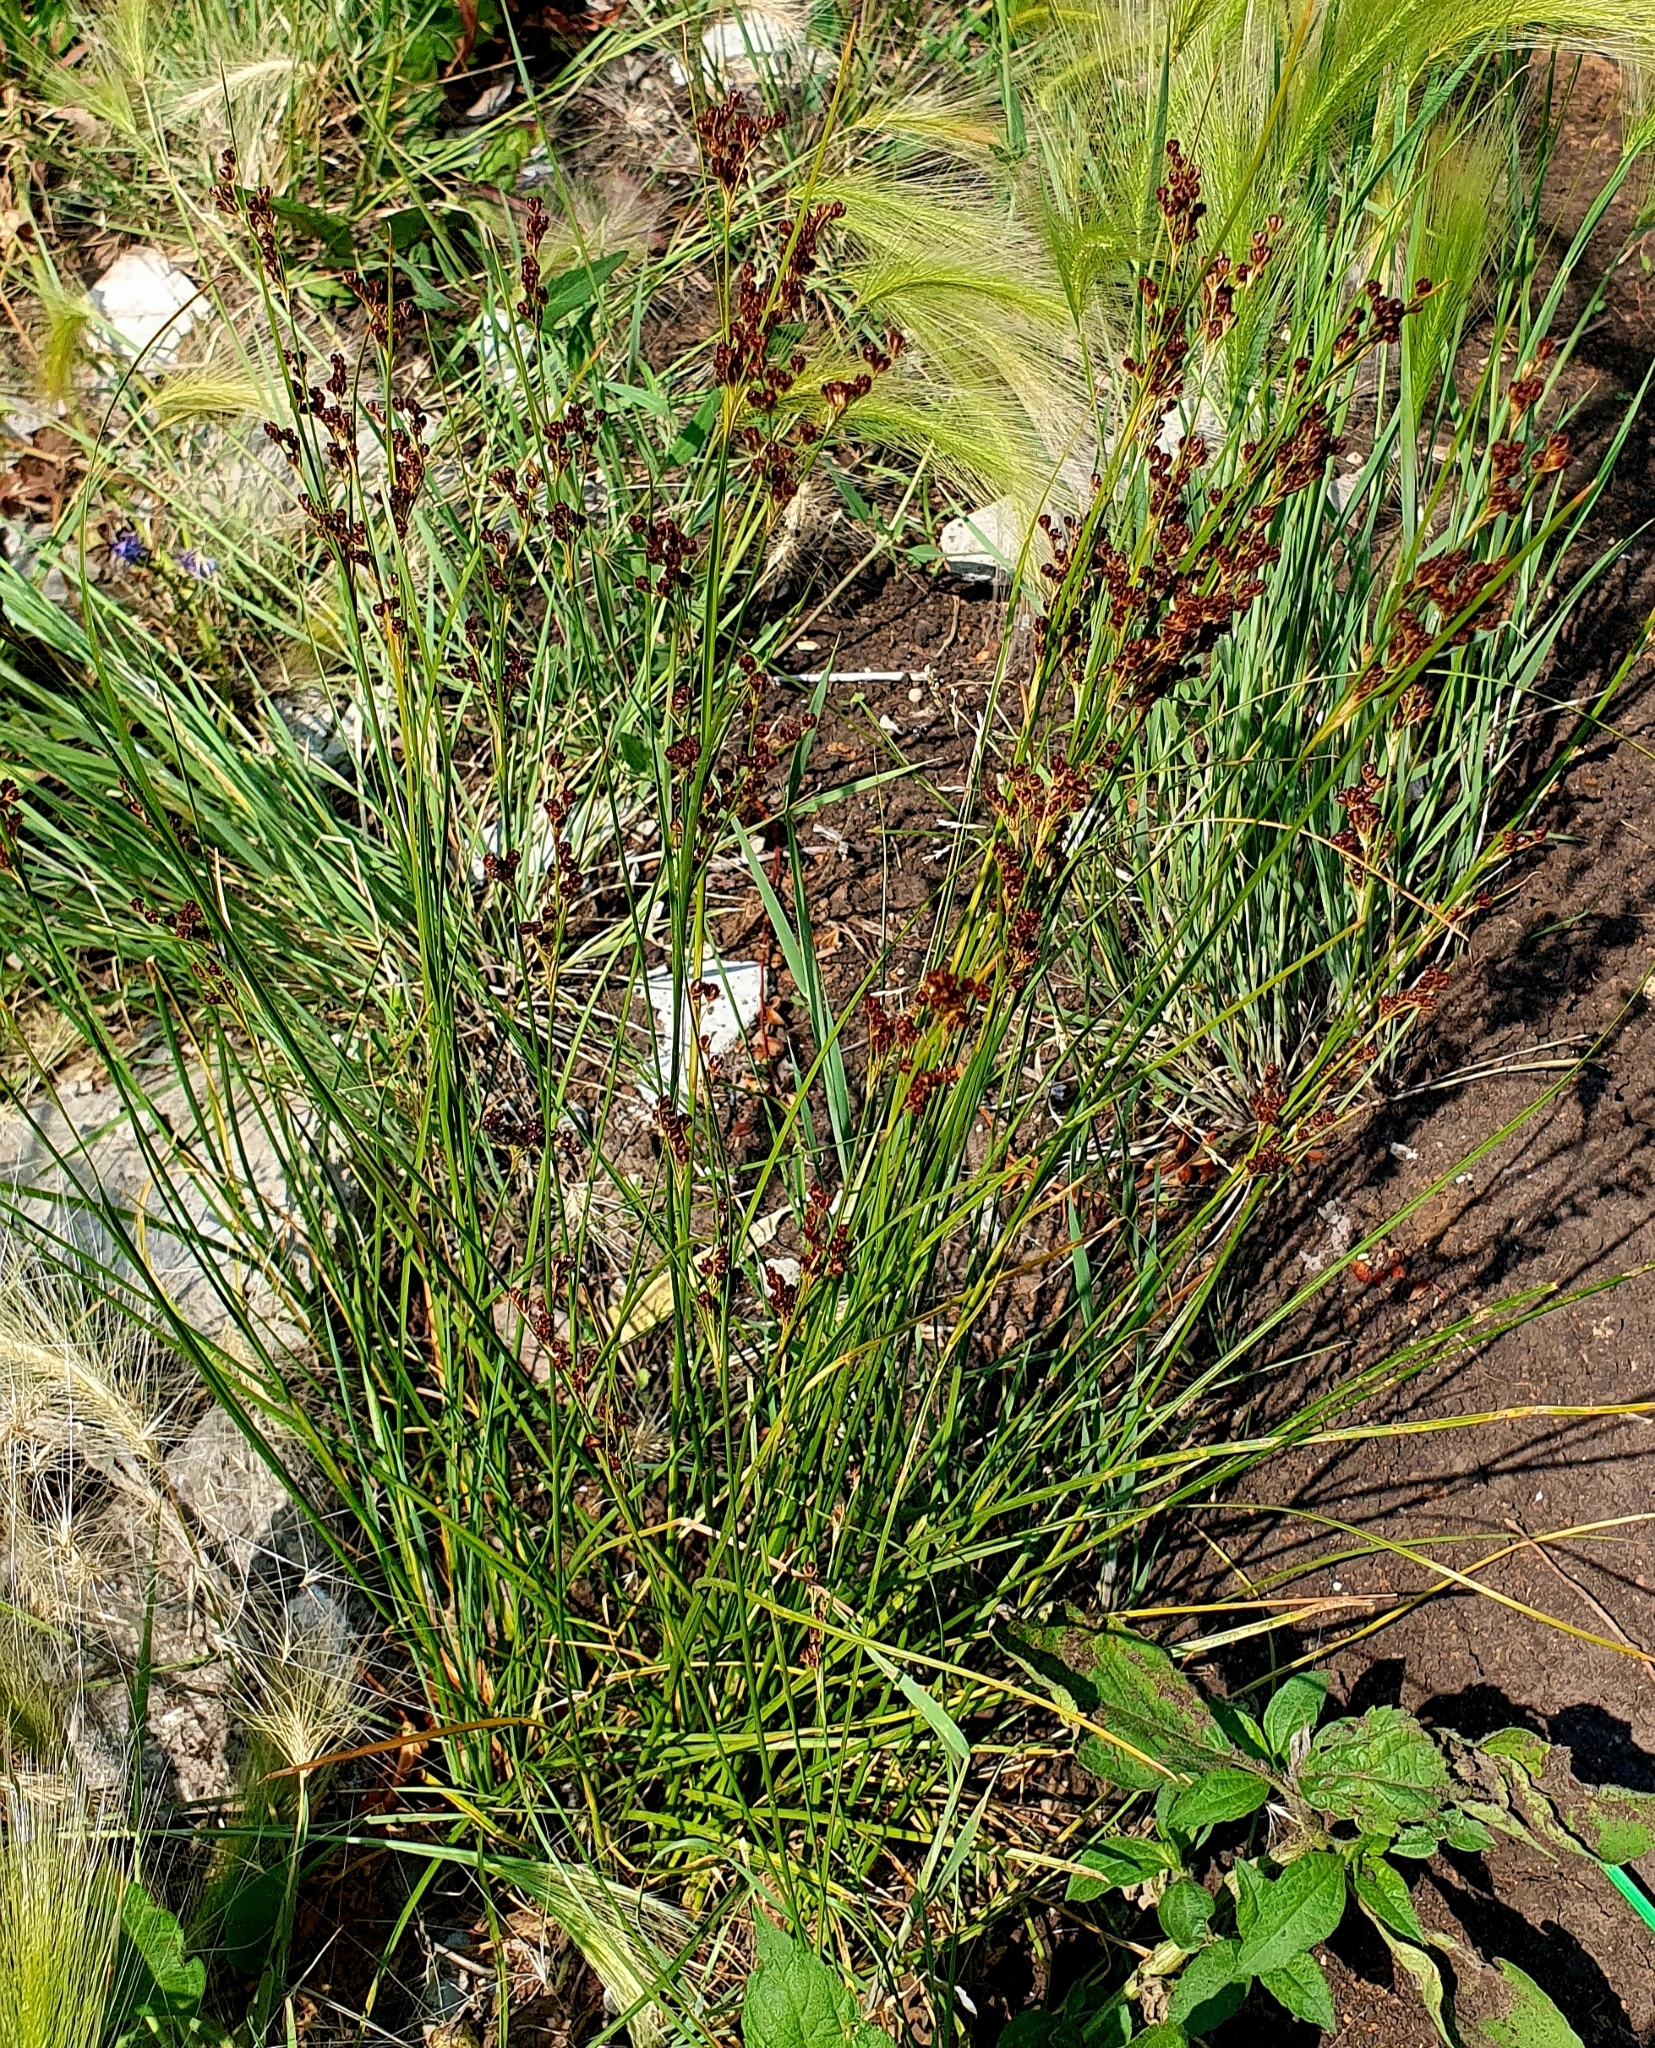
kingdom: Plantae
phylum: Tracheophyta
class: Liliopsida
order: Poales
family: Juncaceae
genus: Juncus
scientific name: Juncus compressus
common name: Round-fruited rush
